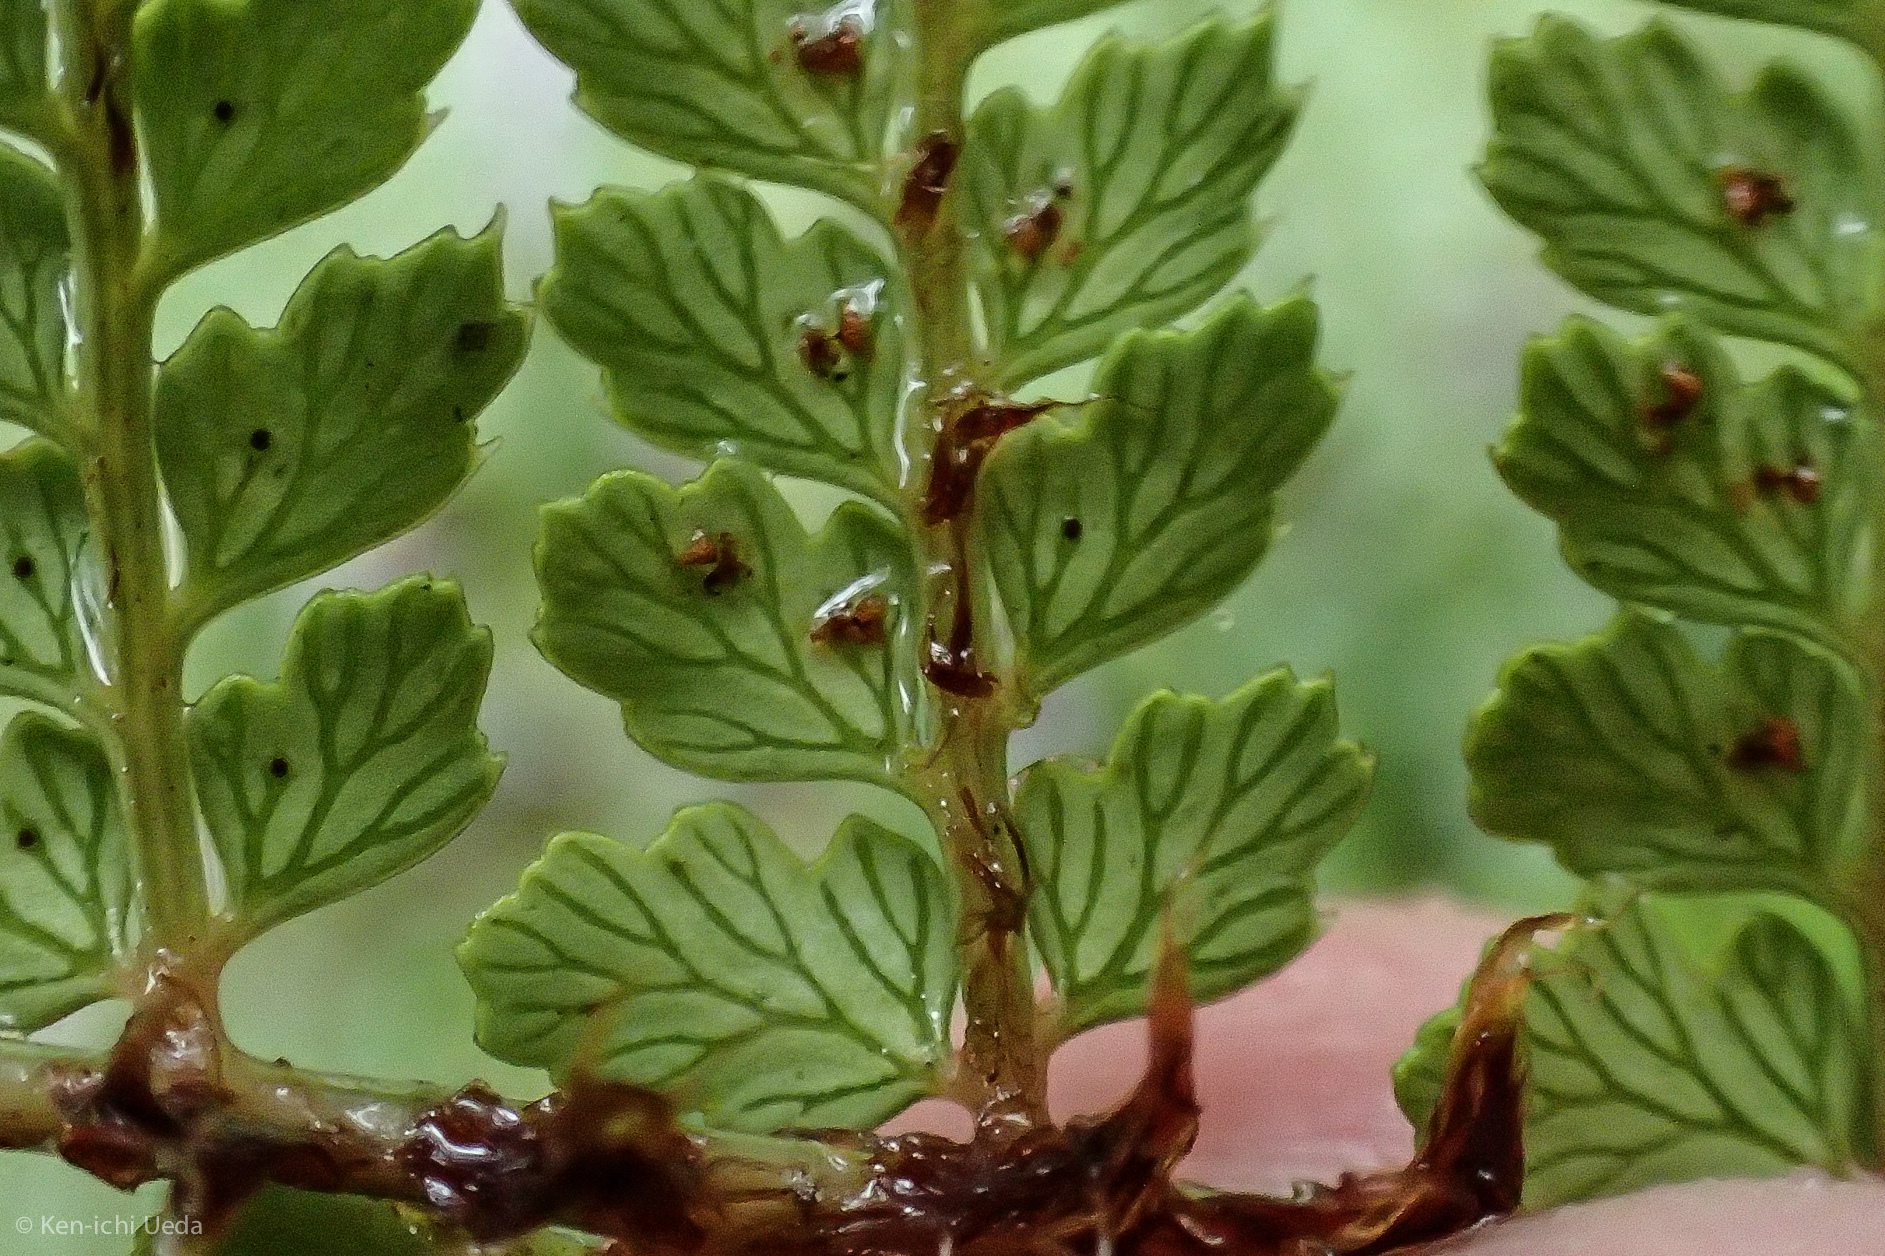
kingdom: Plantae
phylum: Tracheophyta
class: Polypodiopsida
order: Polypodiales
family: Dryopteridaceae
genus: Polystichum
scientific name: Polystichum vestitum
